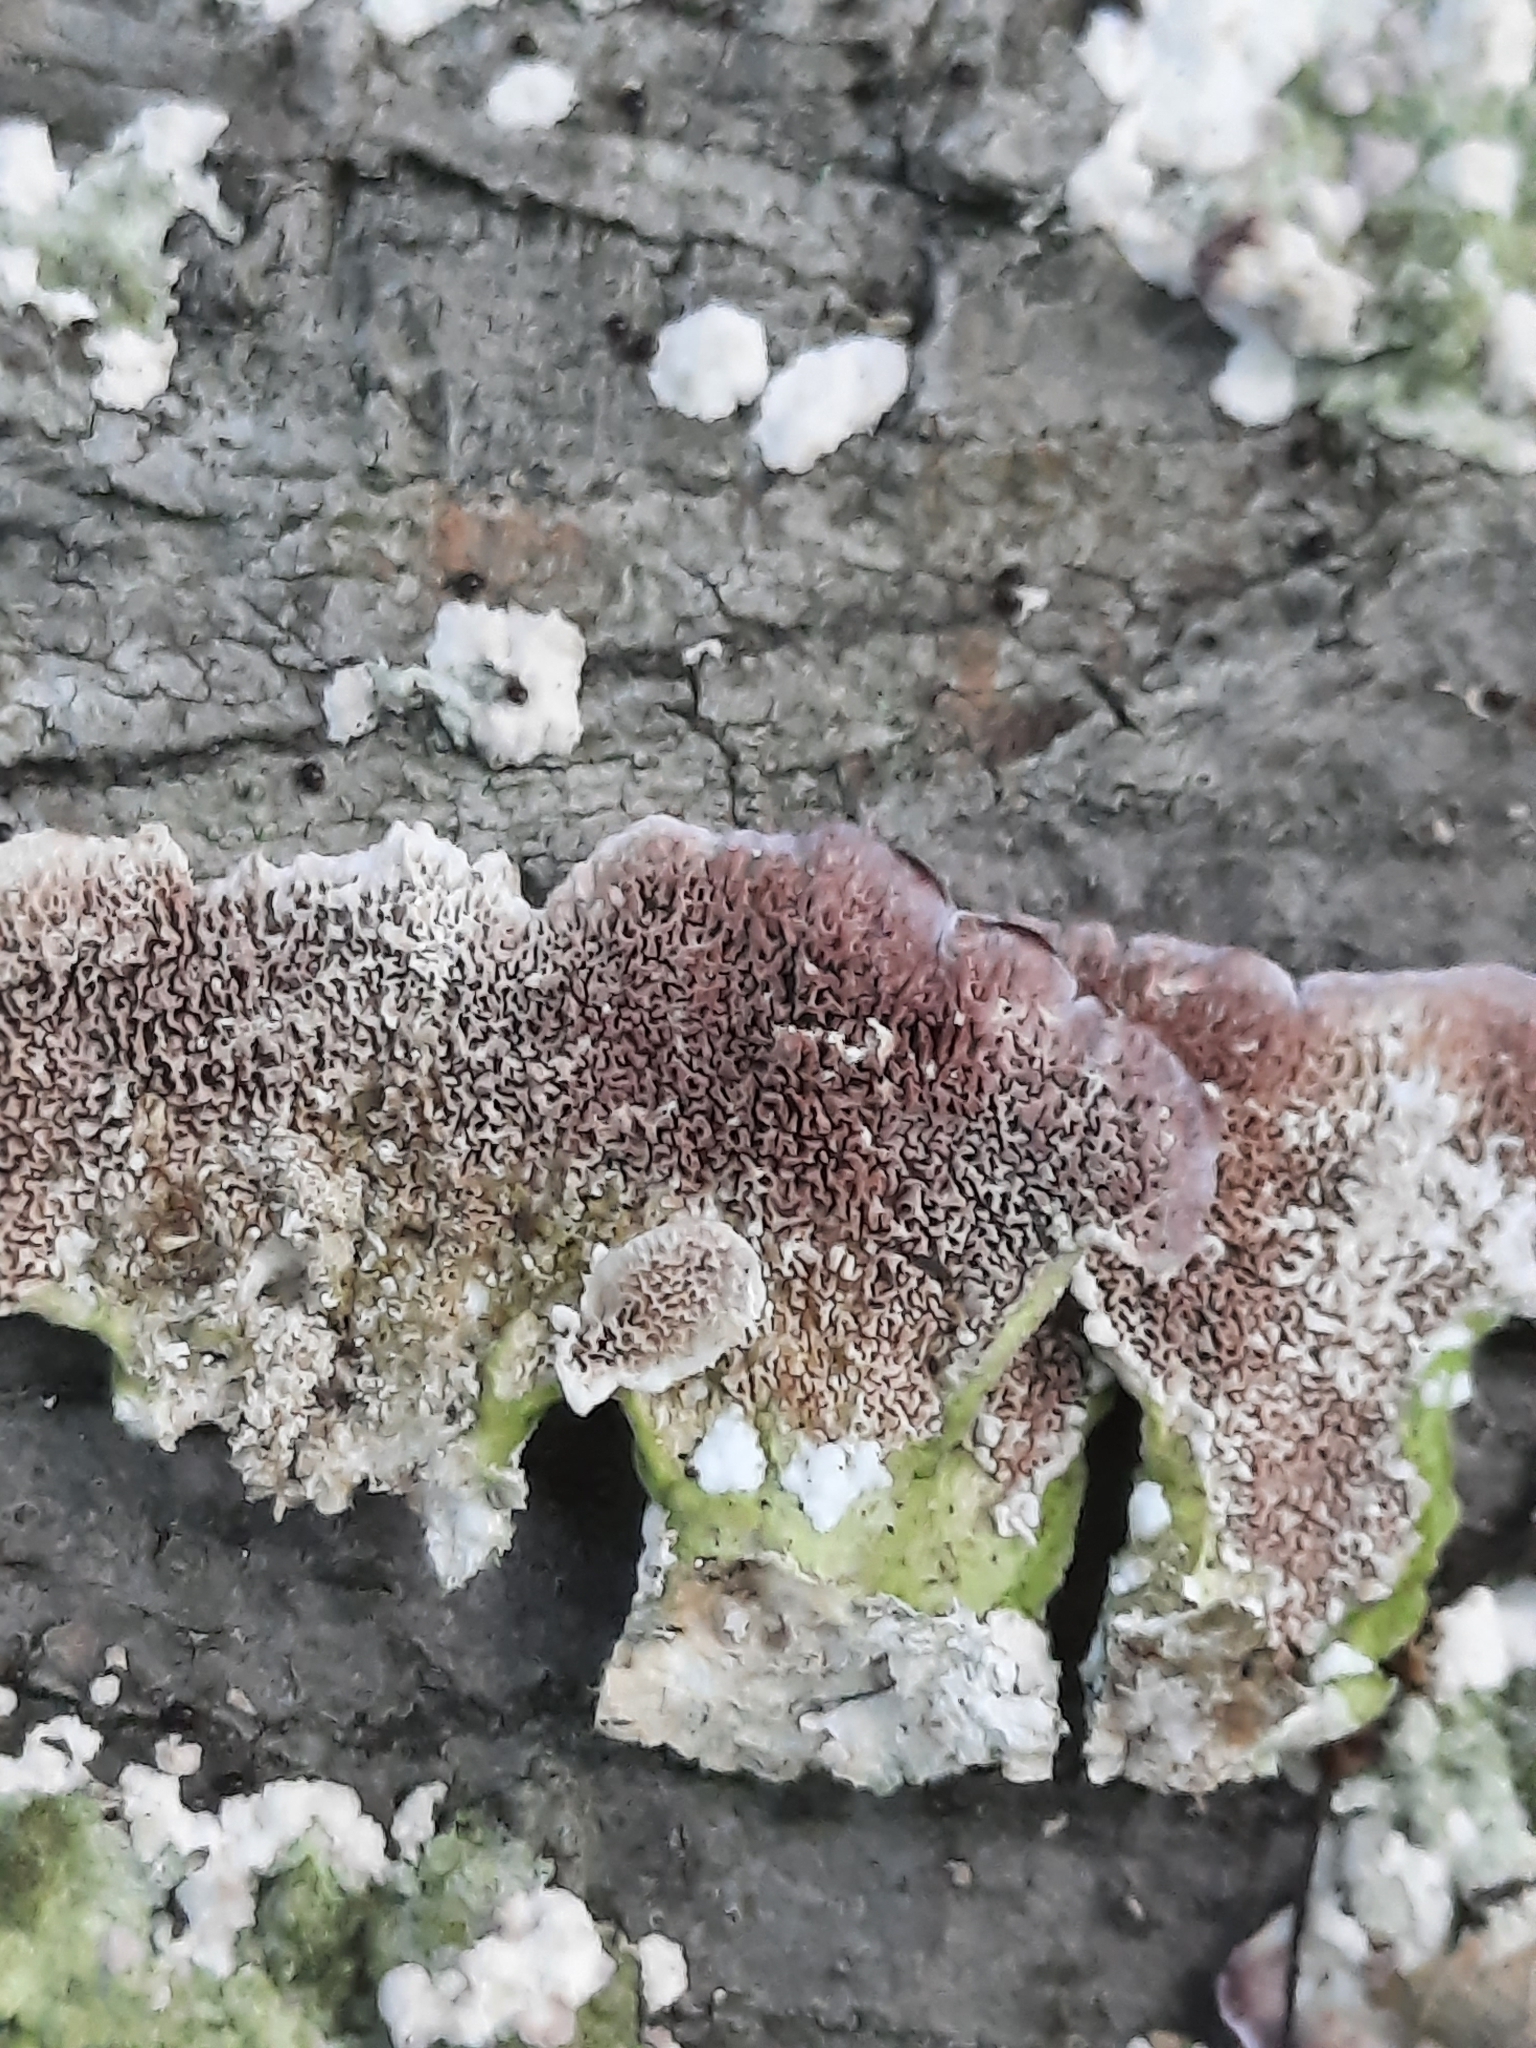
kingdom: Fungi
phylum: Basidiomycota
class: Agaricomycetes
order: Hymenochaetales
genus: Trichaptum
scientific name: Trichaptum biforme
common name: Violet-toothed polypore
